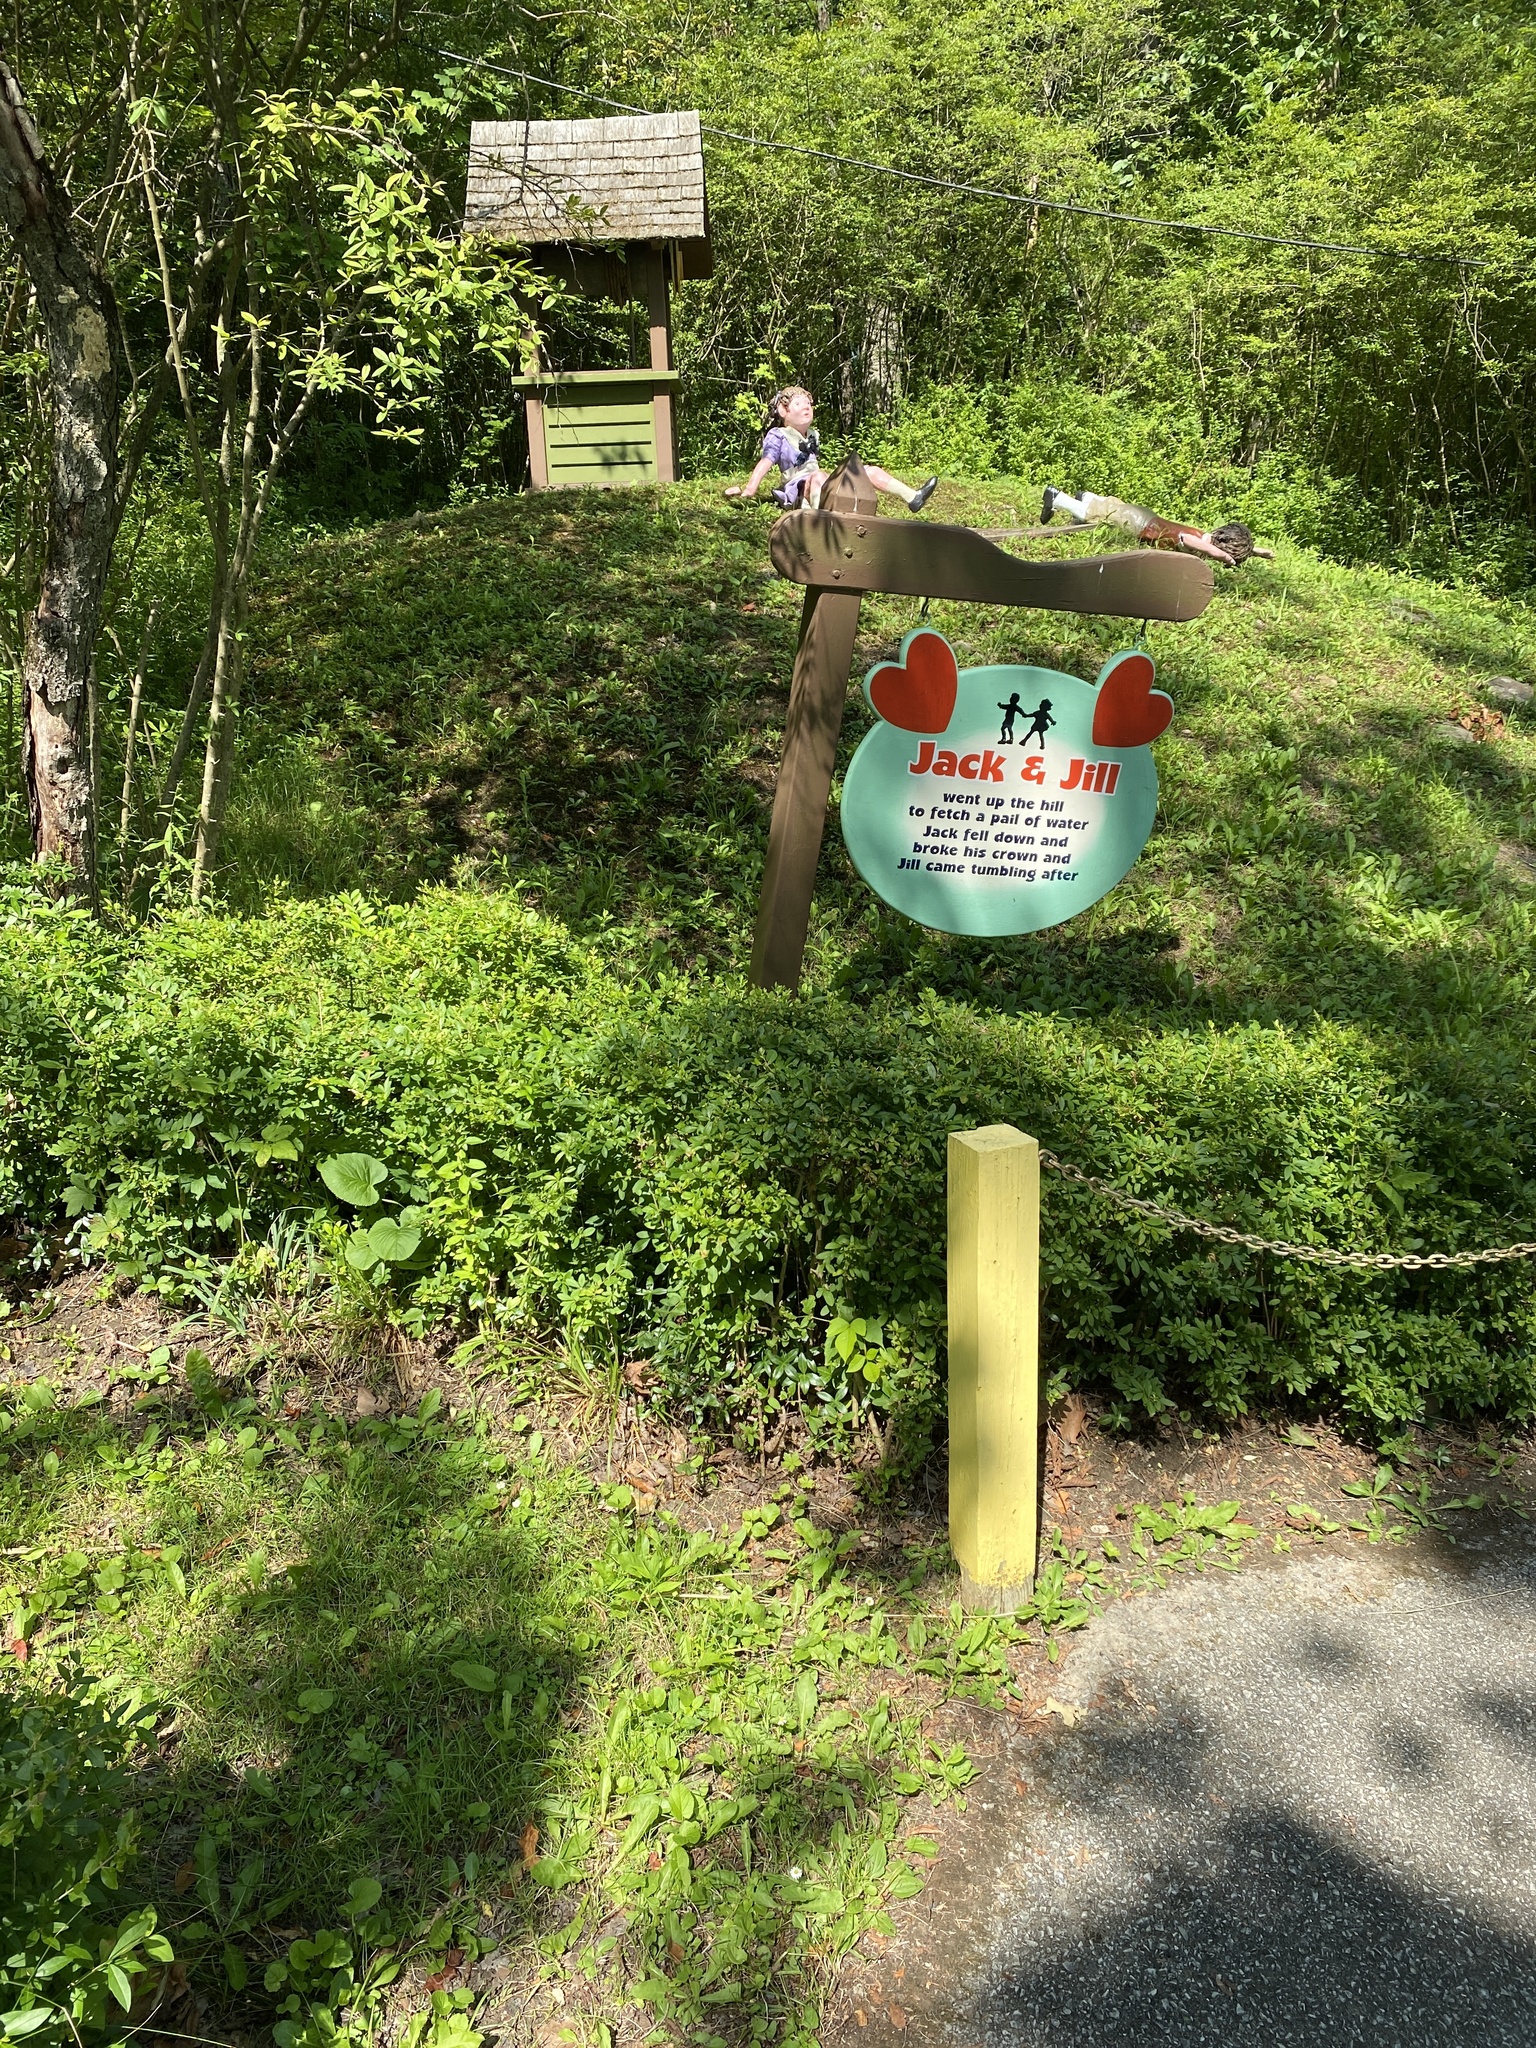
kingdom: Plantae
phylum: Tracheophyta
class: Magnoliopsida
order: Asterales
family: Asteraceae
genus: Bellis
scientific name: Bellis perennis
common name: Lawndaisy
